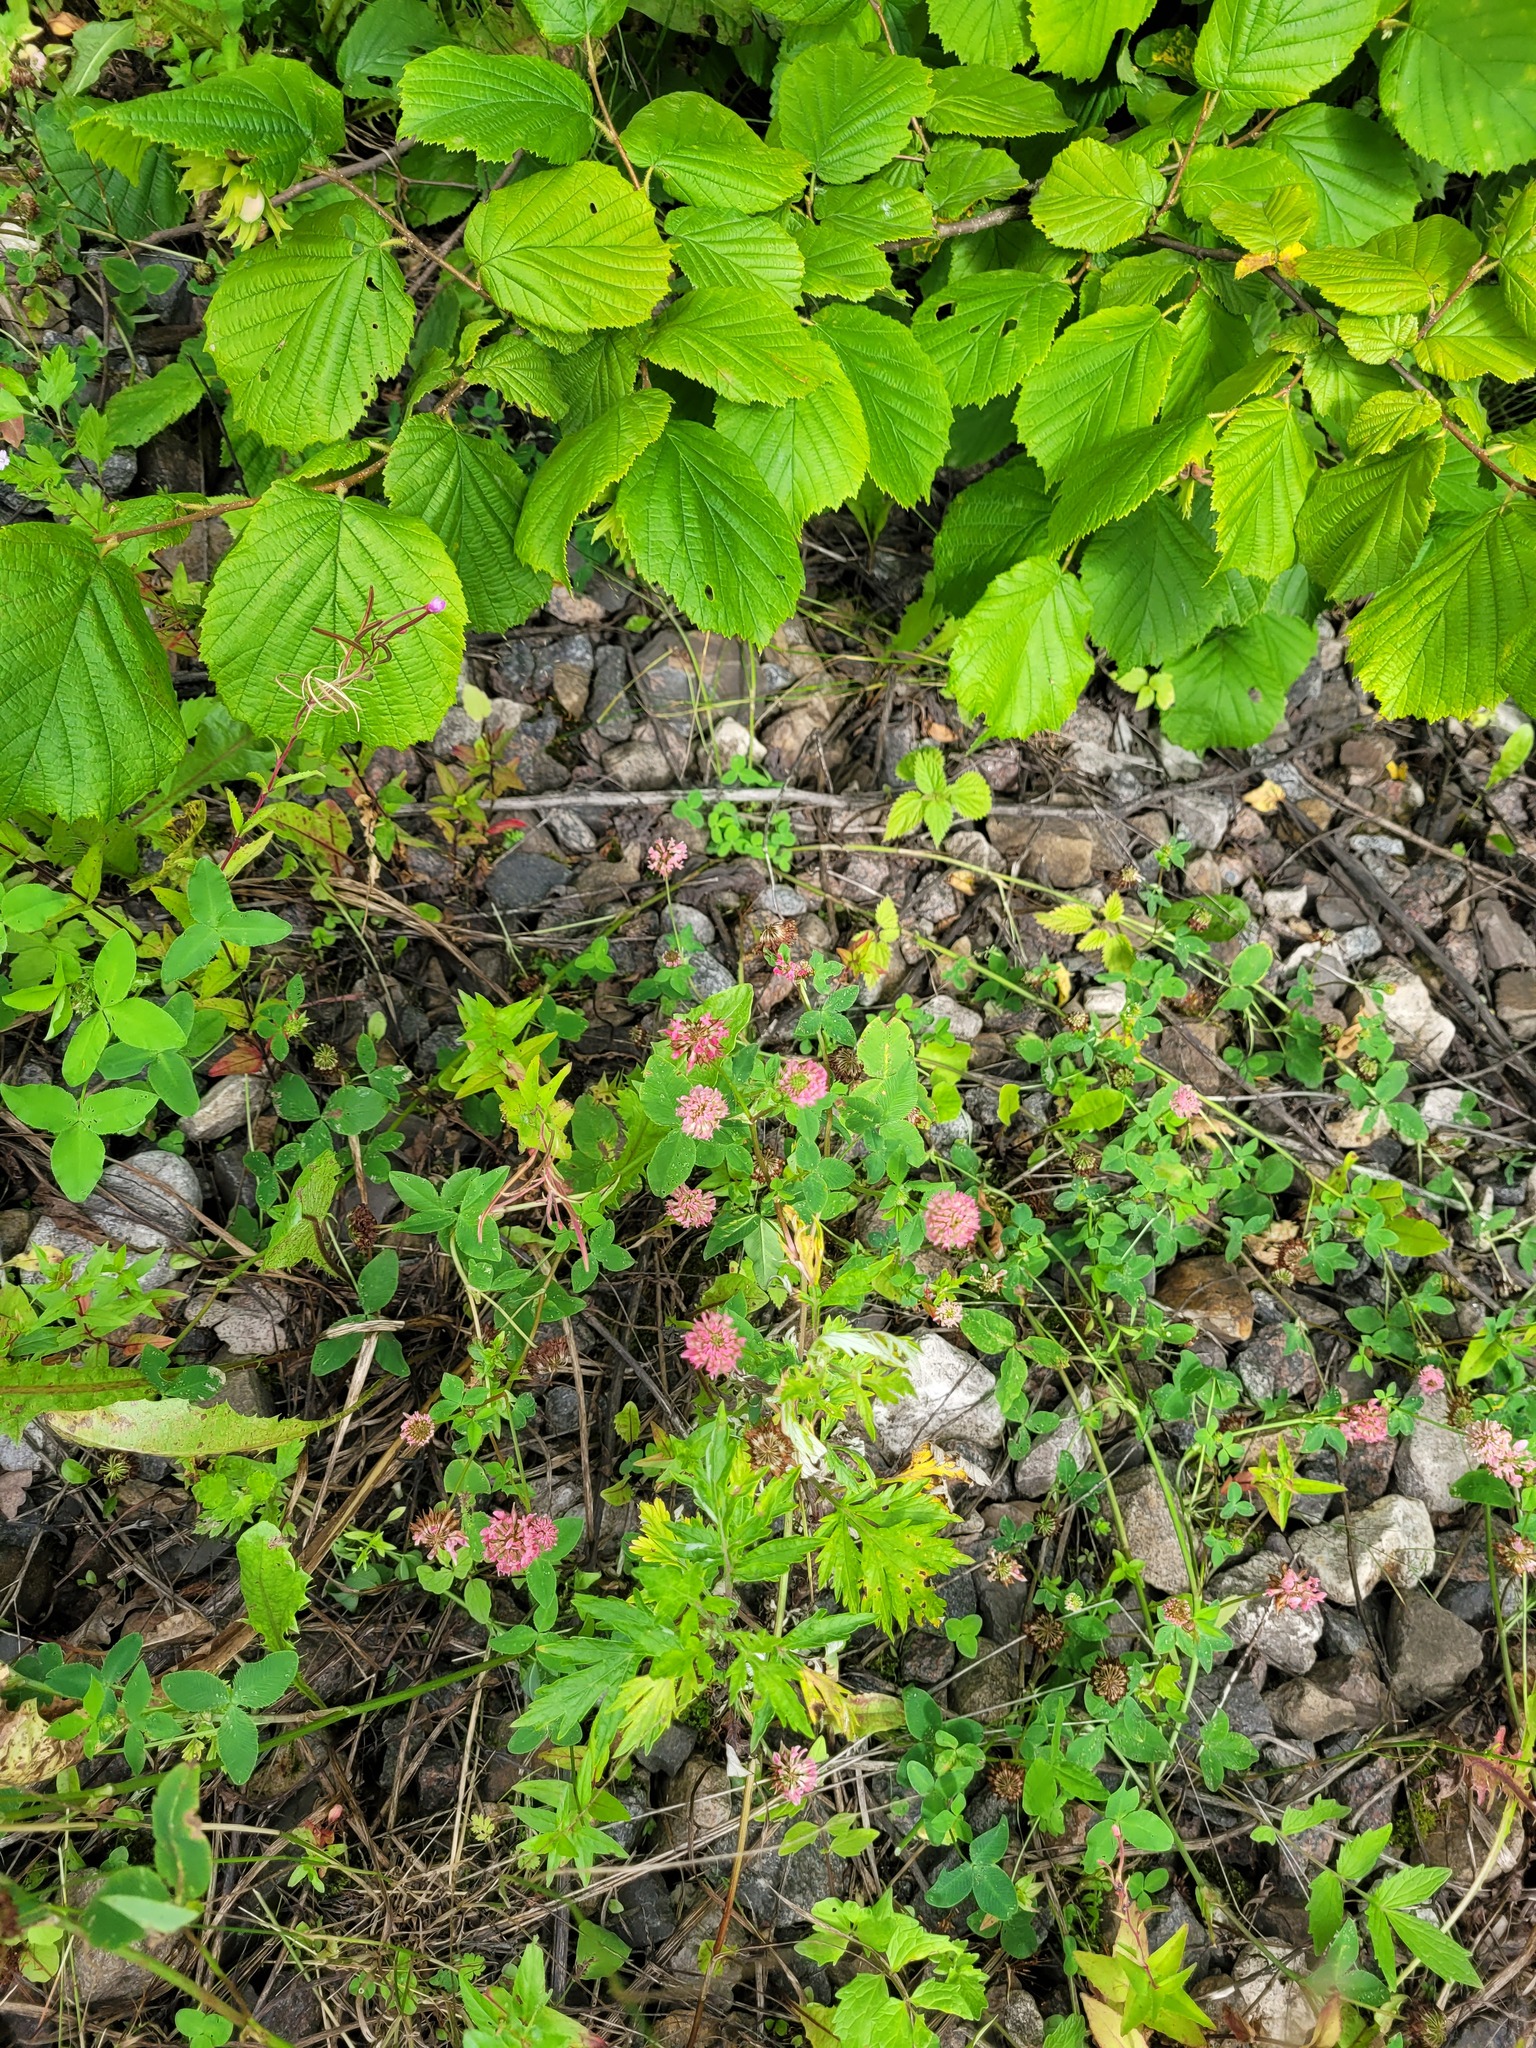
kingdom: Plantae
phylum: Tracheophyta
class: Magnoliopsida
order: Fabales
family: Fabaceae
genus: Trifolium
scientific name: Trifolium hybridum
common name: Alsike clover
